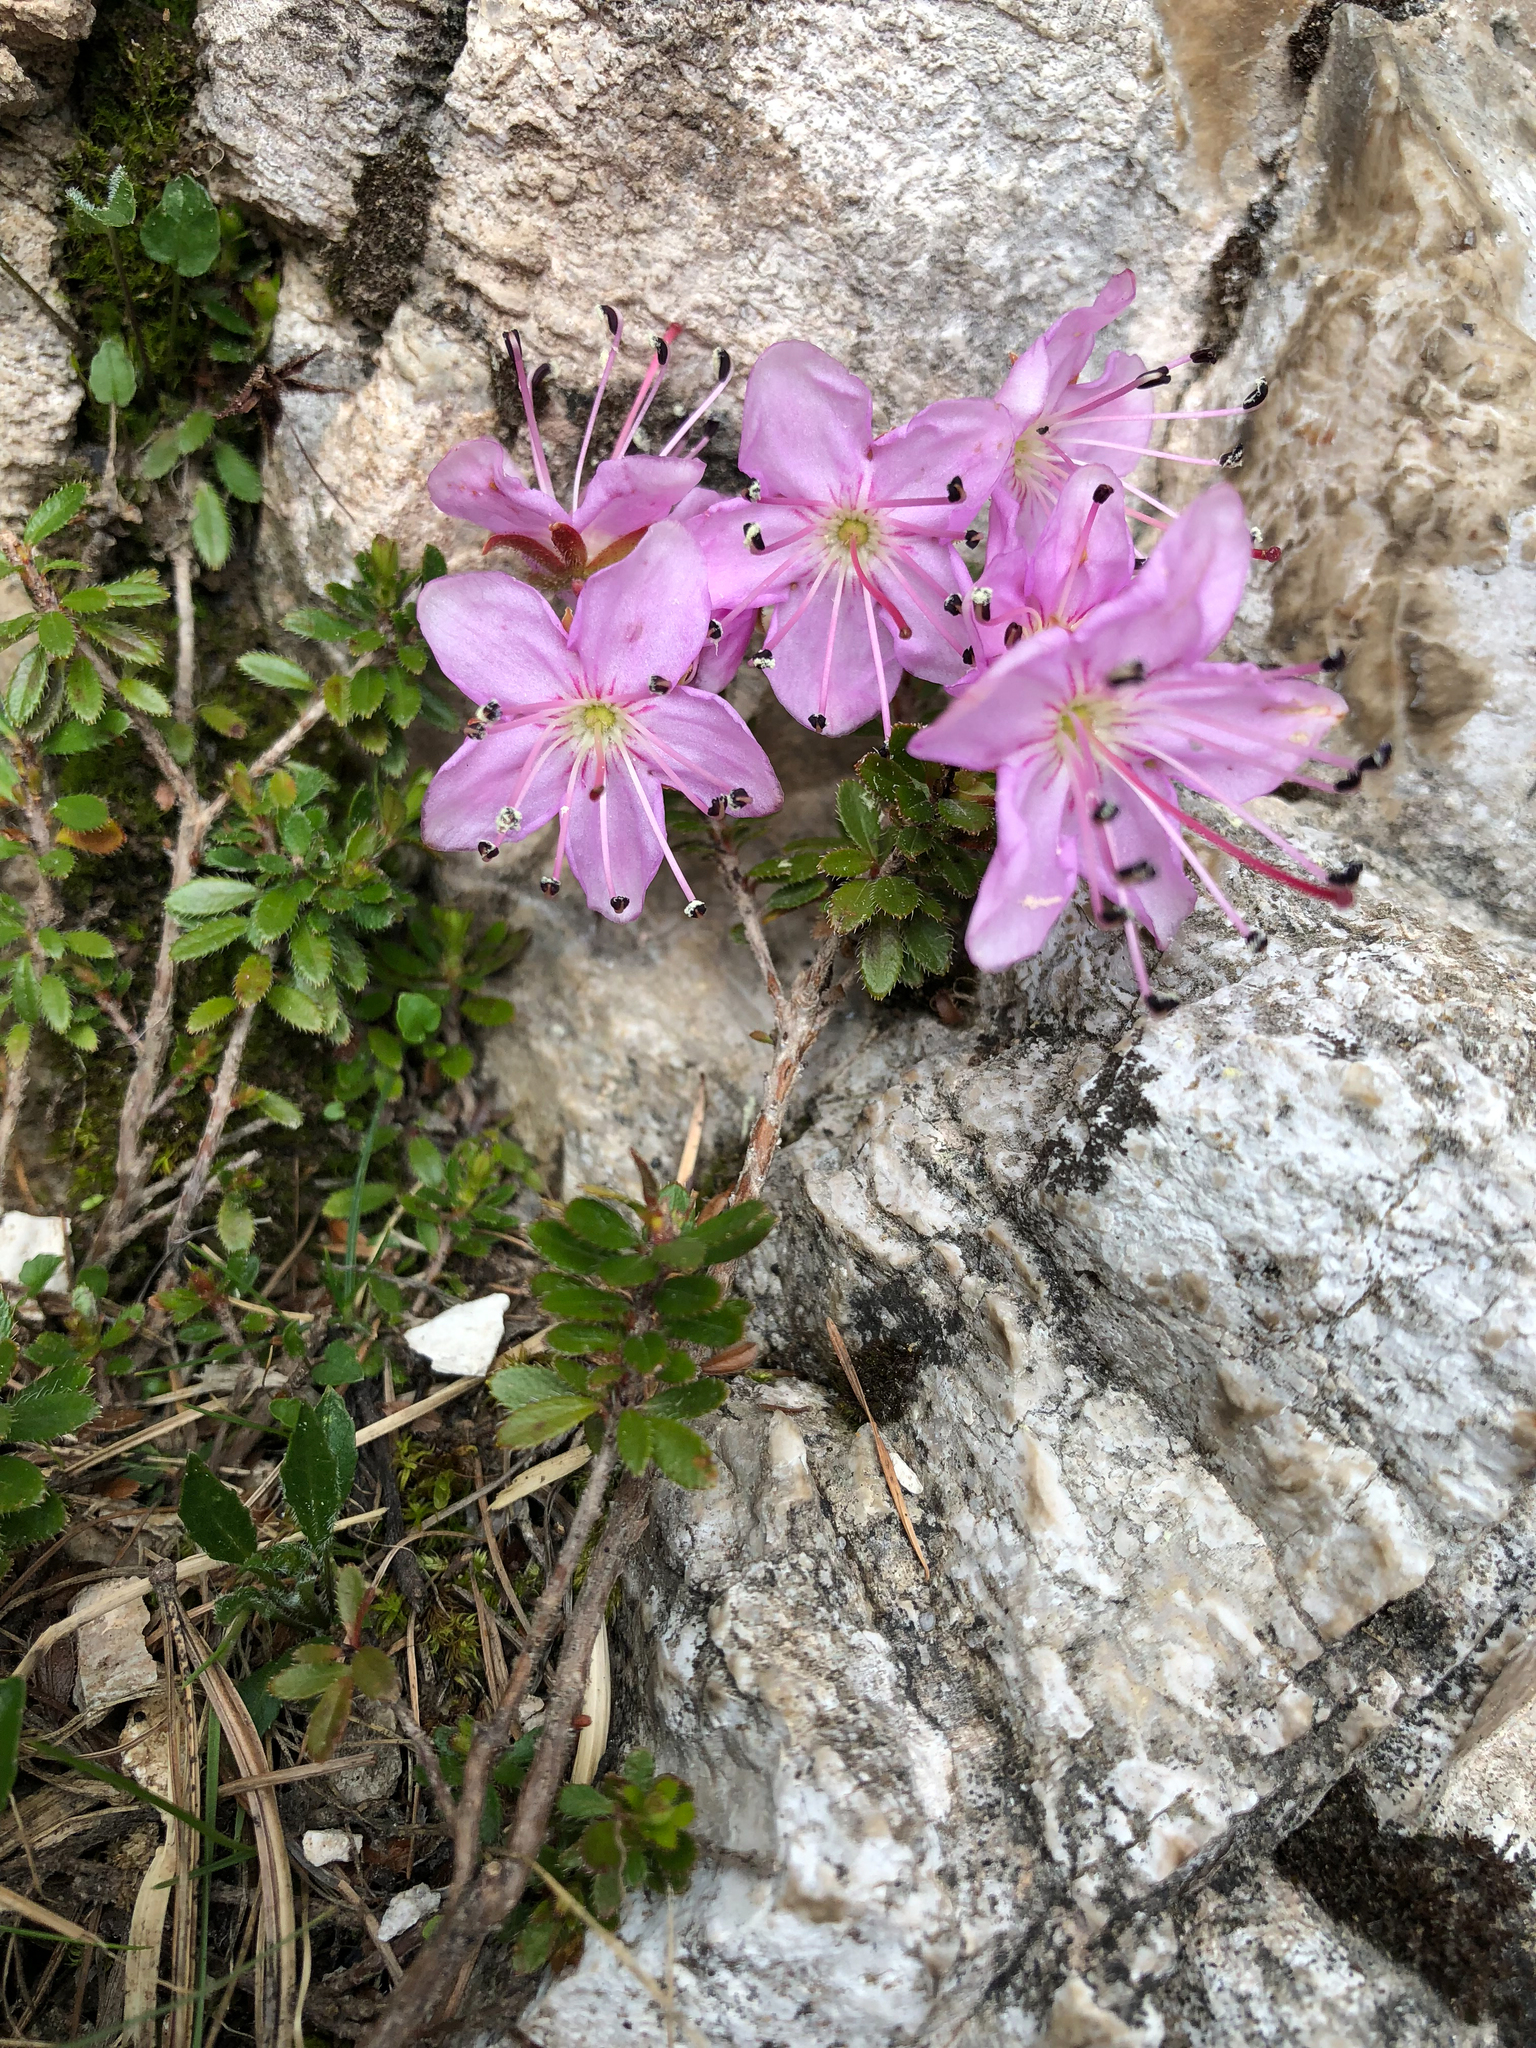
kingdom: Plantae
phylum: Tracheophyta
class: Magnoliopsida
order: Ericales
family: Ericaceae
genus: Rhodothamnus
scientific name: Rhodothamnus chamaecistus
